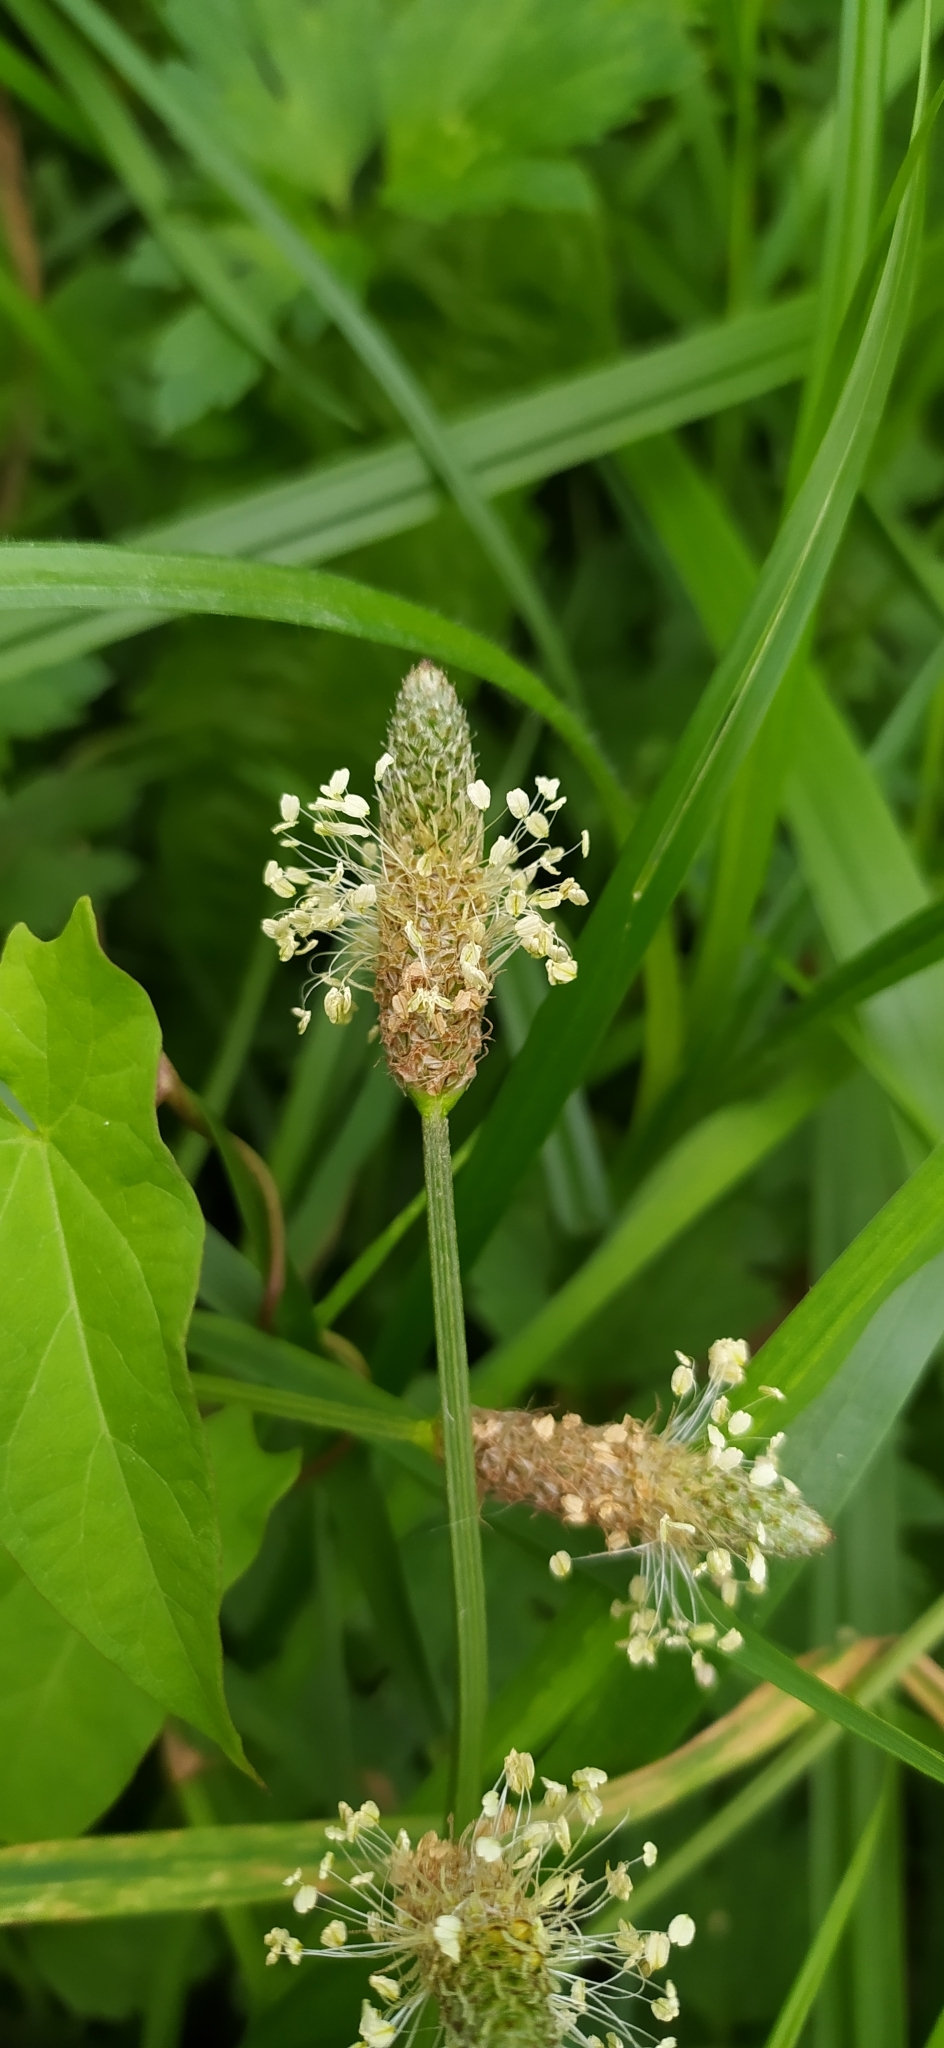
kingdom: Plantae
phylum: Tracheophyta
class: Magnoliopsida
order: Lamiales
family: Plantaginaceae
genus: Plantago
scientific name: Plantago lanceolata
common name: Ribwort plantain
